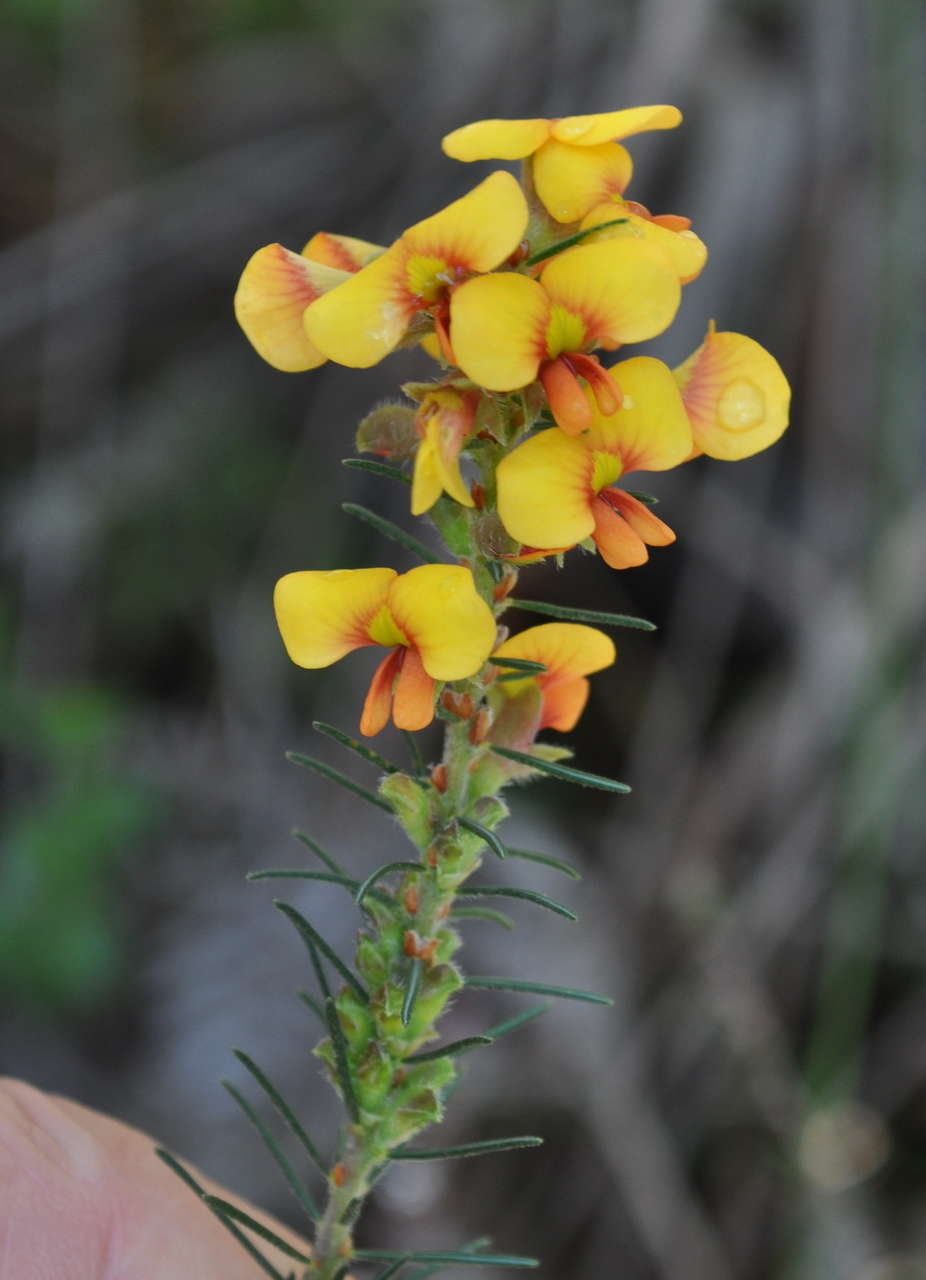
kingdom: Plantae
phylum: Tracheophyta
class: Magnoliopsida
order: Fabales
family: Fabaceae
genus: Dillwynia
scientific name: Dillwynia sericea
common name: Showy parrot-pea
